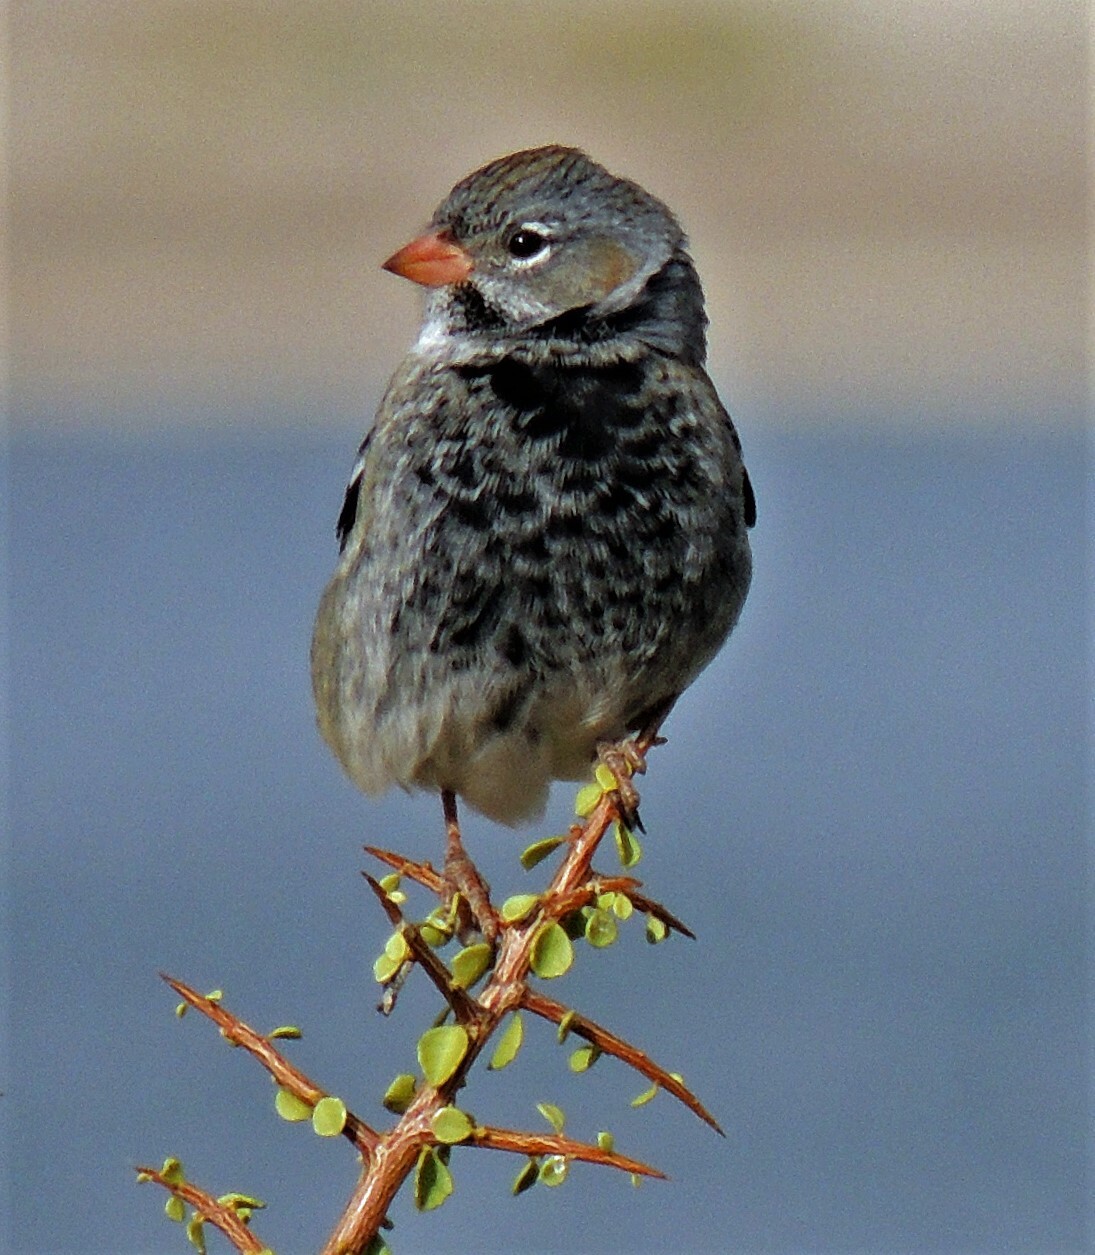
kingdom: Animalia
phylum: Chordata
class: Aves
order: Passeriformes
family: Thraupidae
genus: Rhopospina
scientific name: Rhopospina fruticeti
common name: Mourning sierra finch
